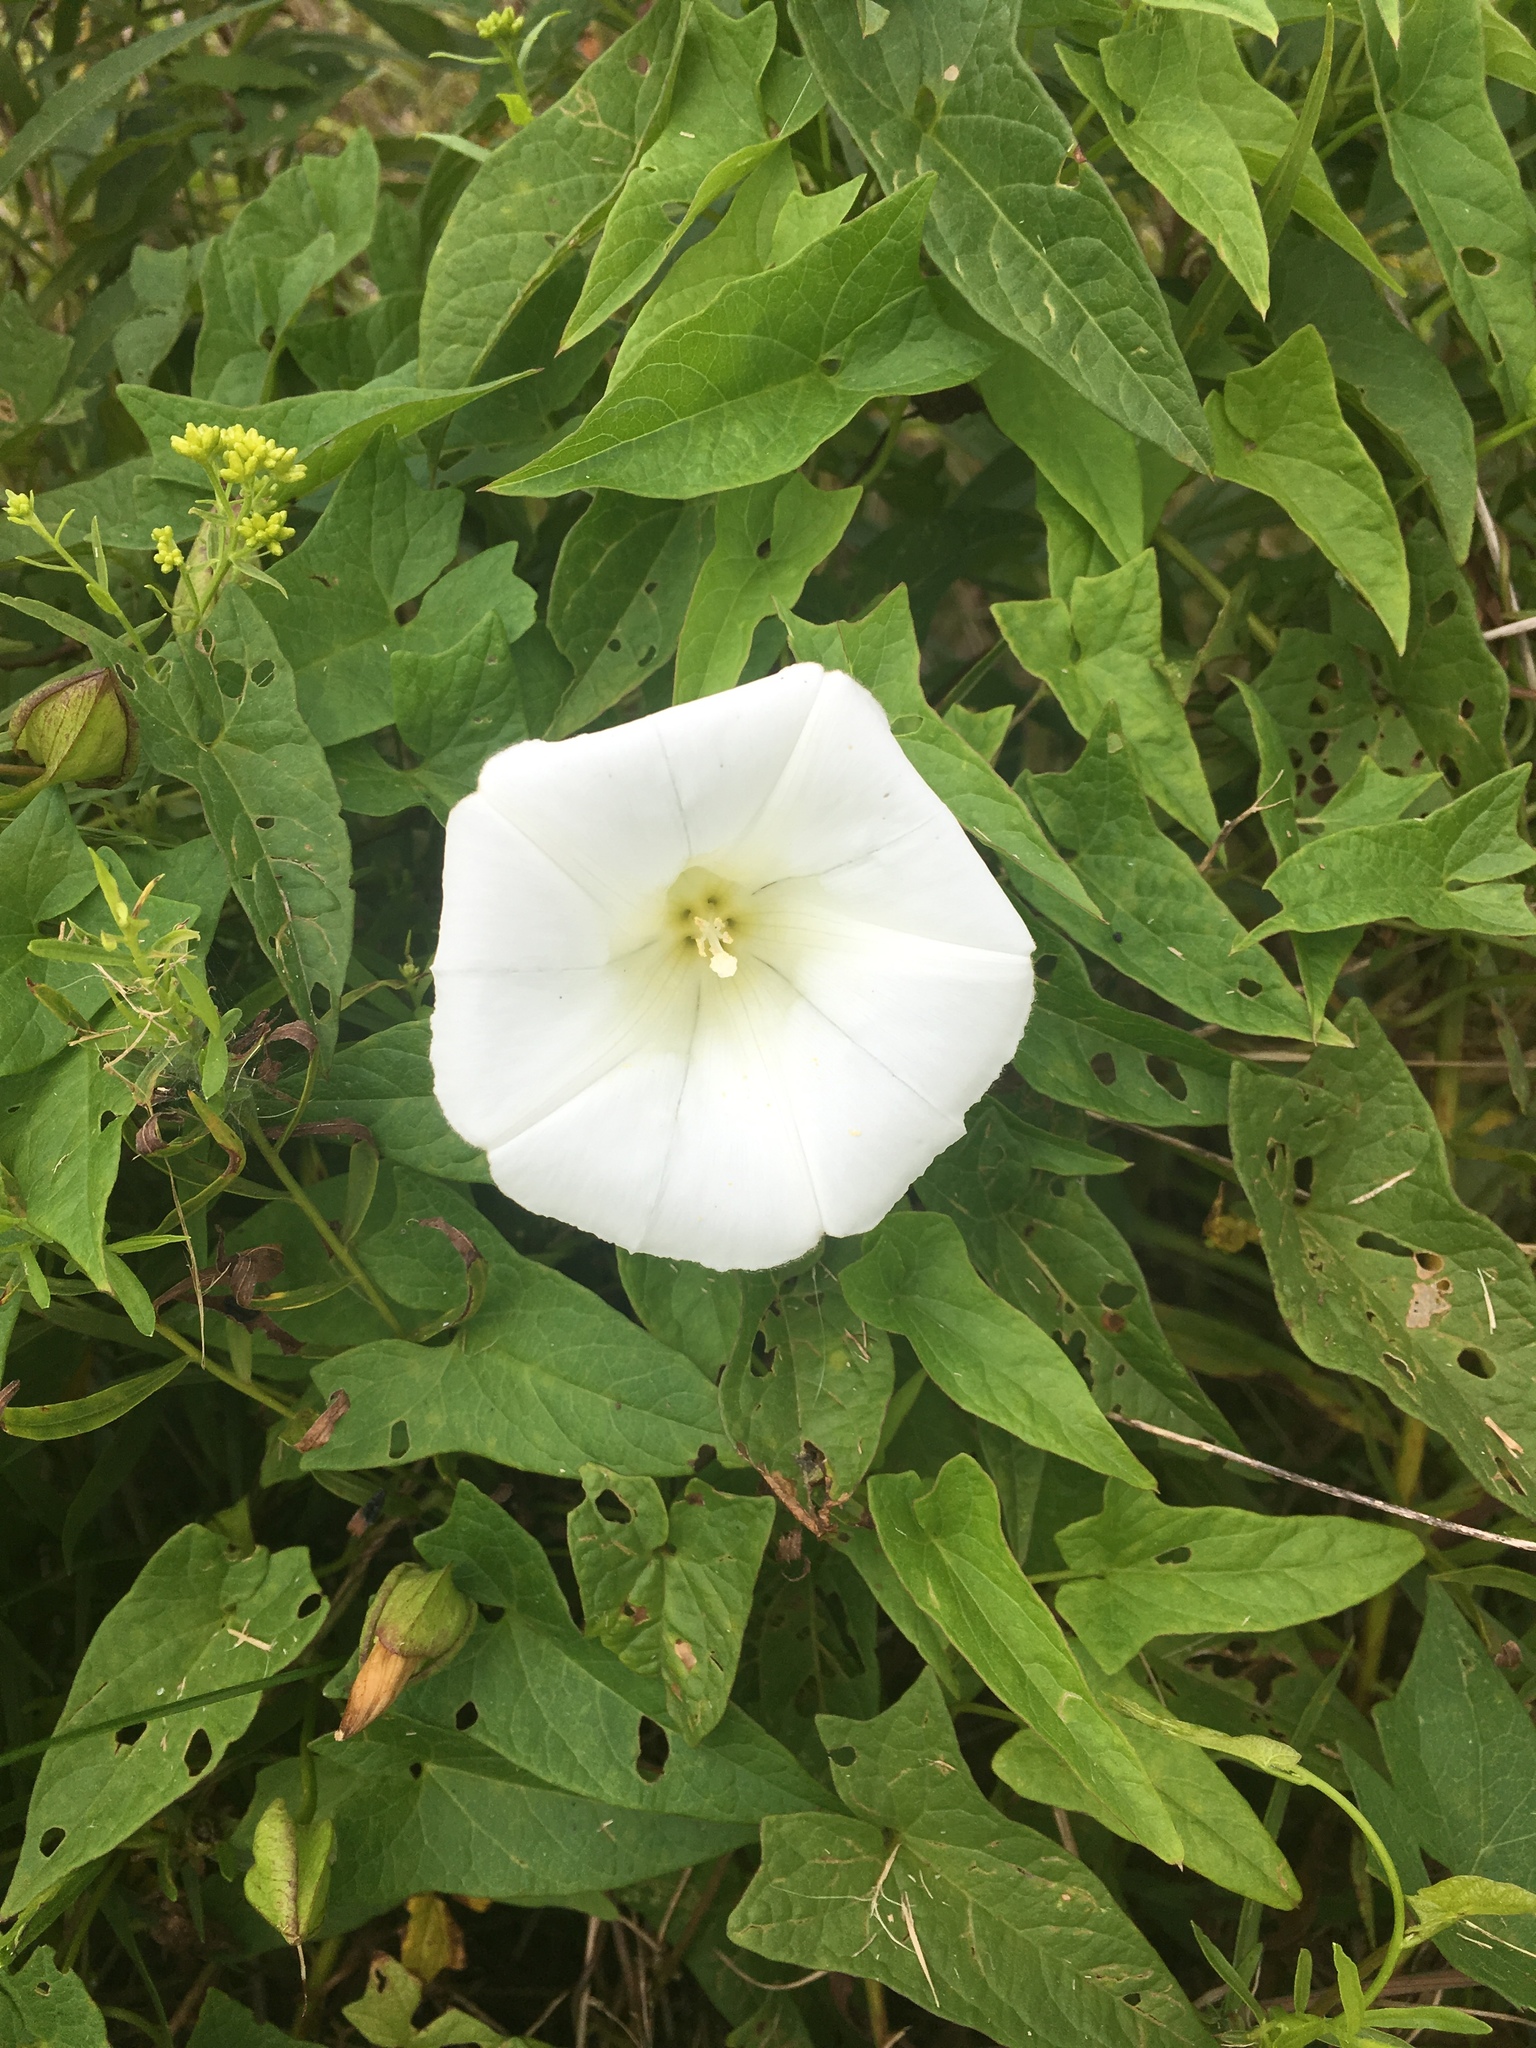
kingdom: Plantae
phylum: Tracheophyta
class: Magnoliopsida
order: Solanales
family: Convolvulaceae
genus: Calystegia
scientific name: Calystegia sepium
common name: Hedge bindweed
